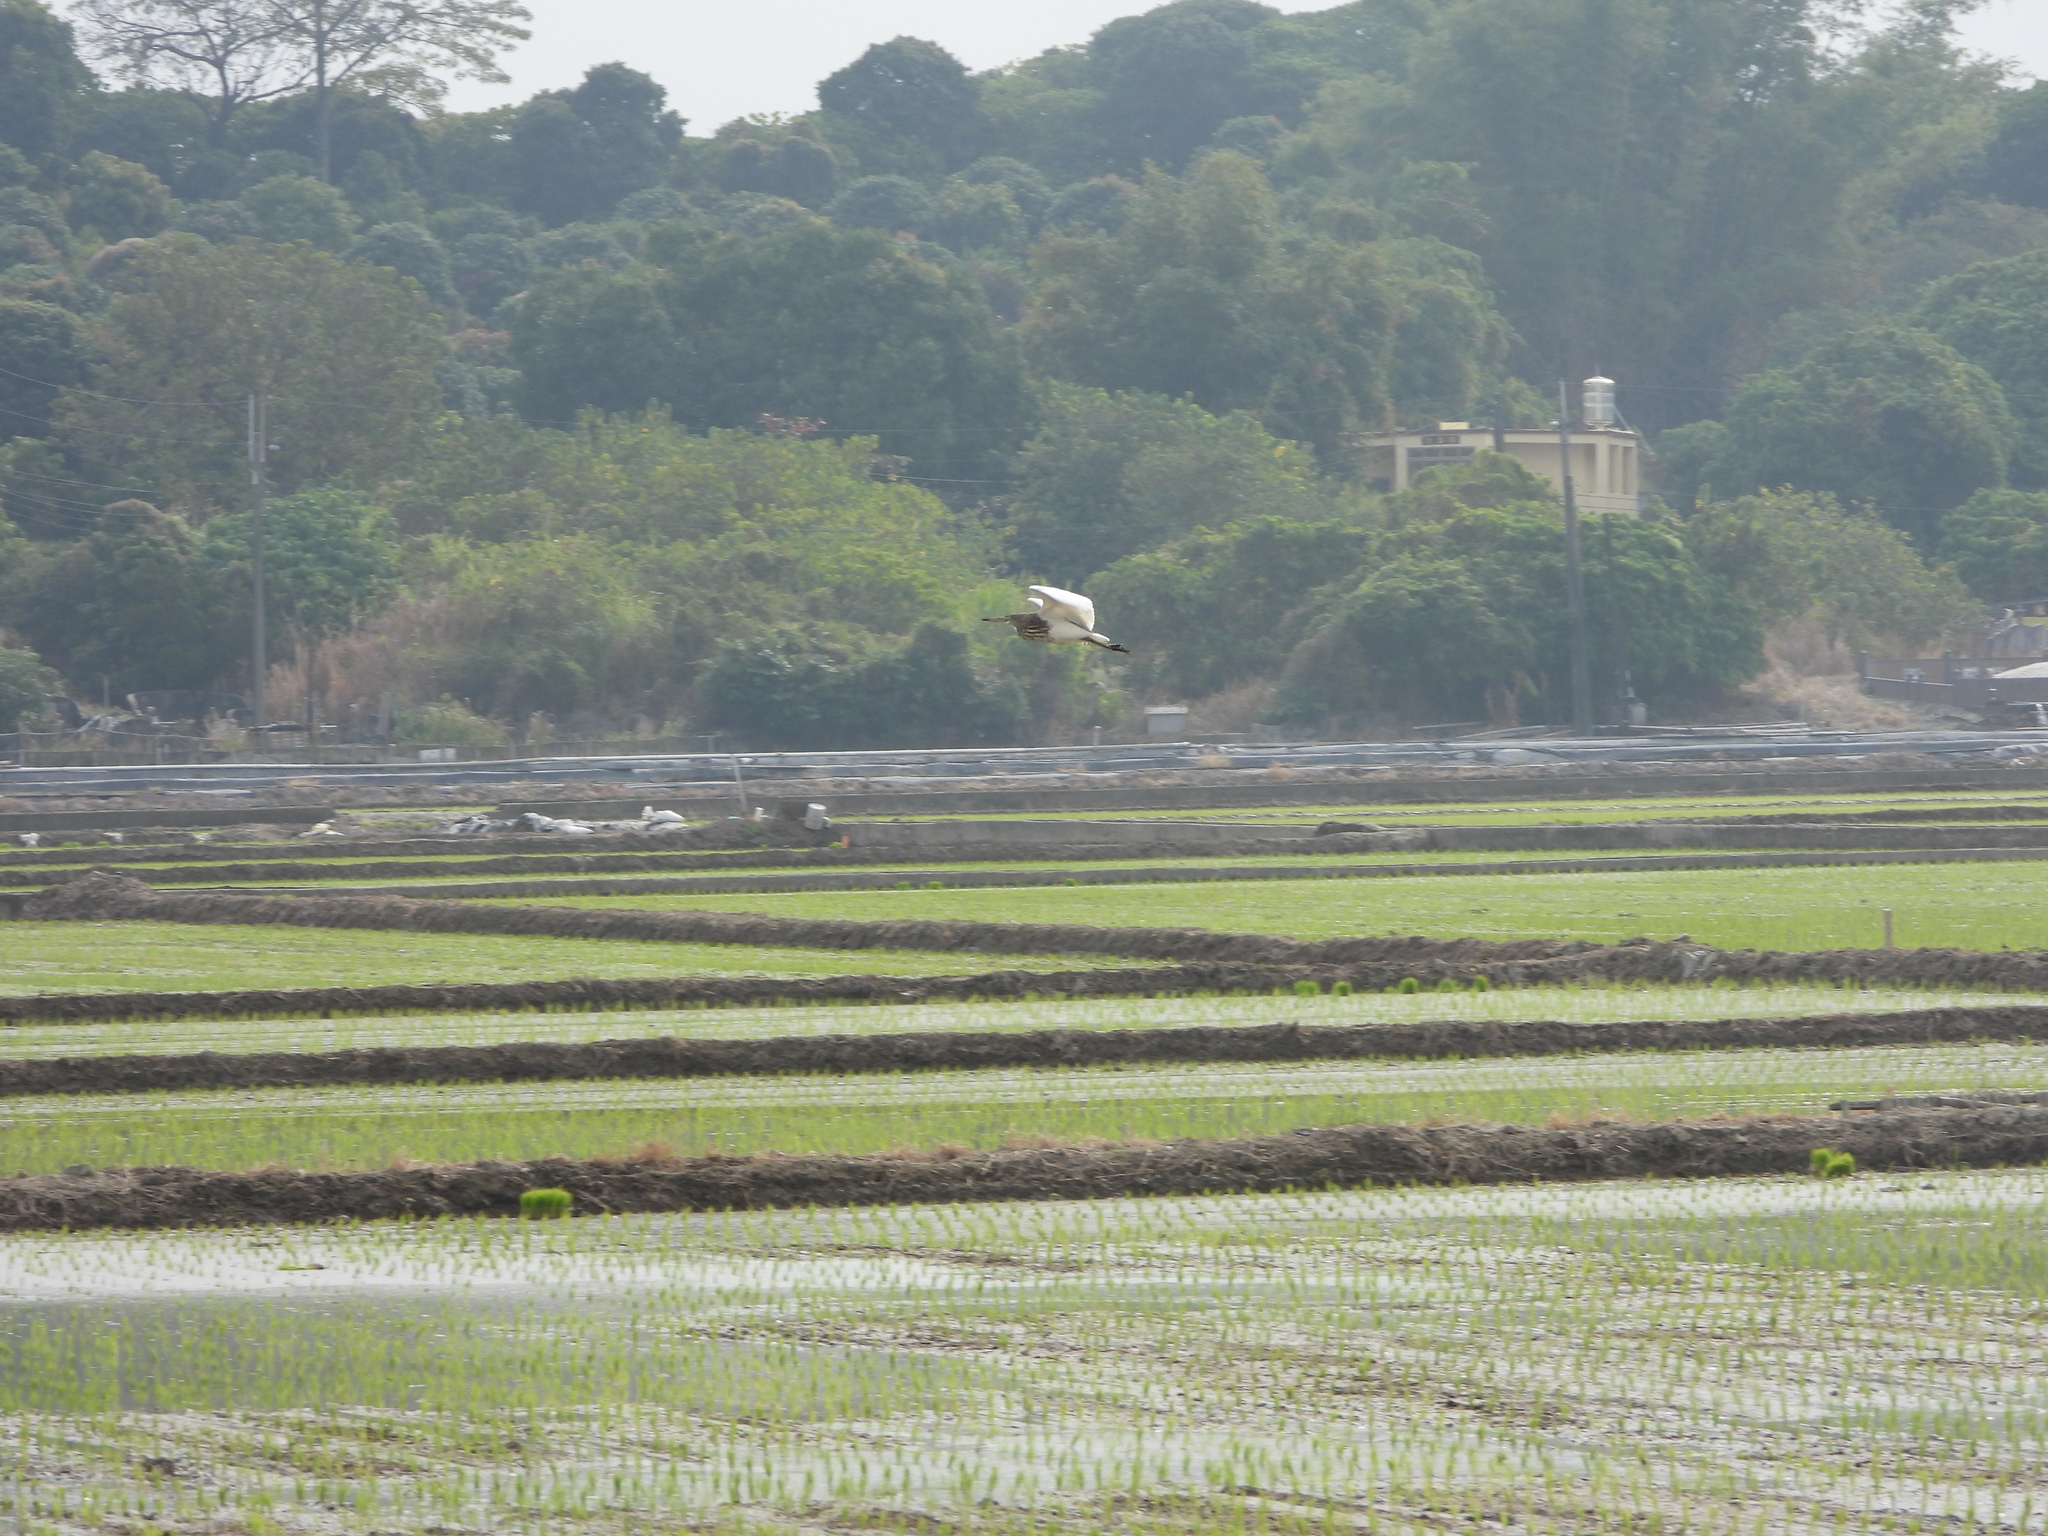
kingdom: Animalia
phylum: Chordata
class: Aves
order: Pelecaniformes
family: Ardeidae
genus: Ardeola
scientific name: Ardeola bacchus
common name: Chinese pond heron
